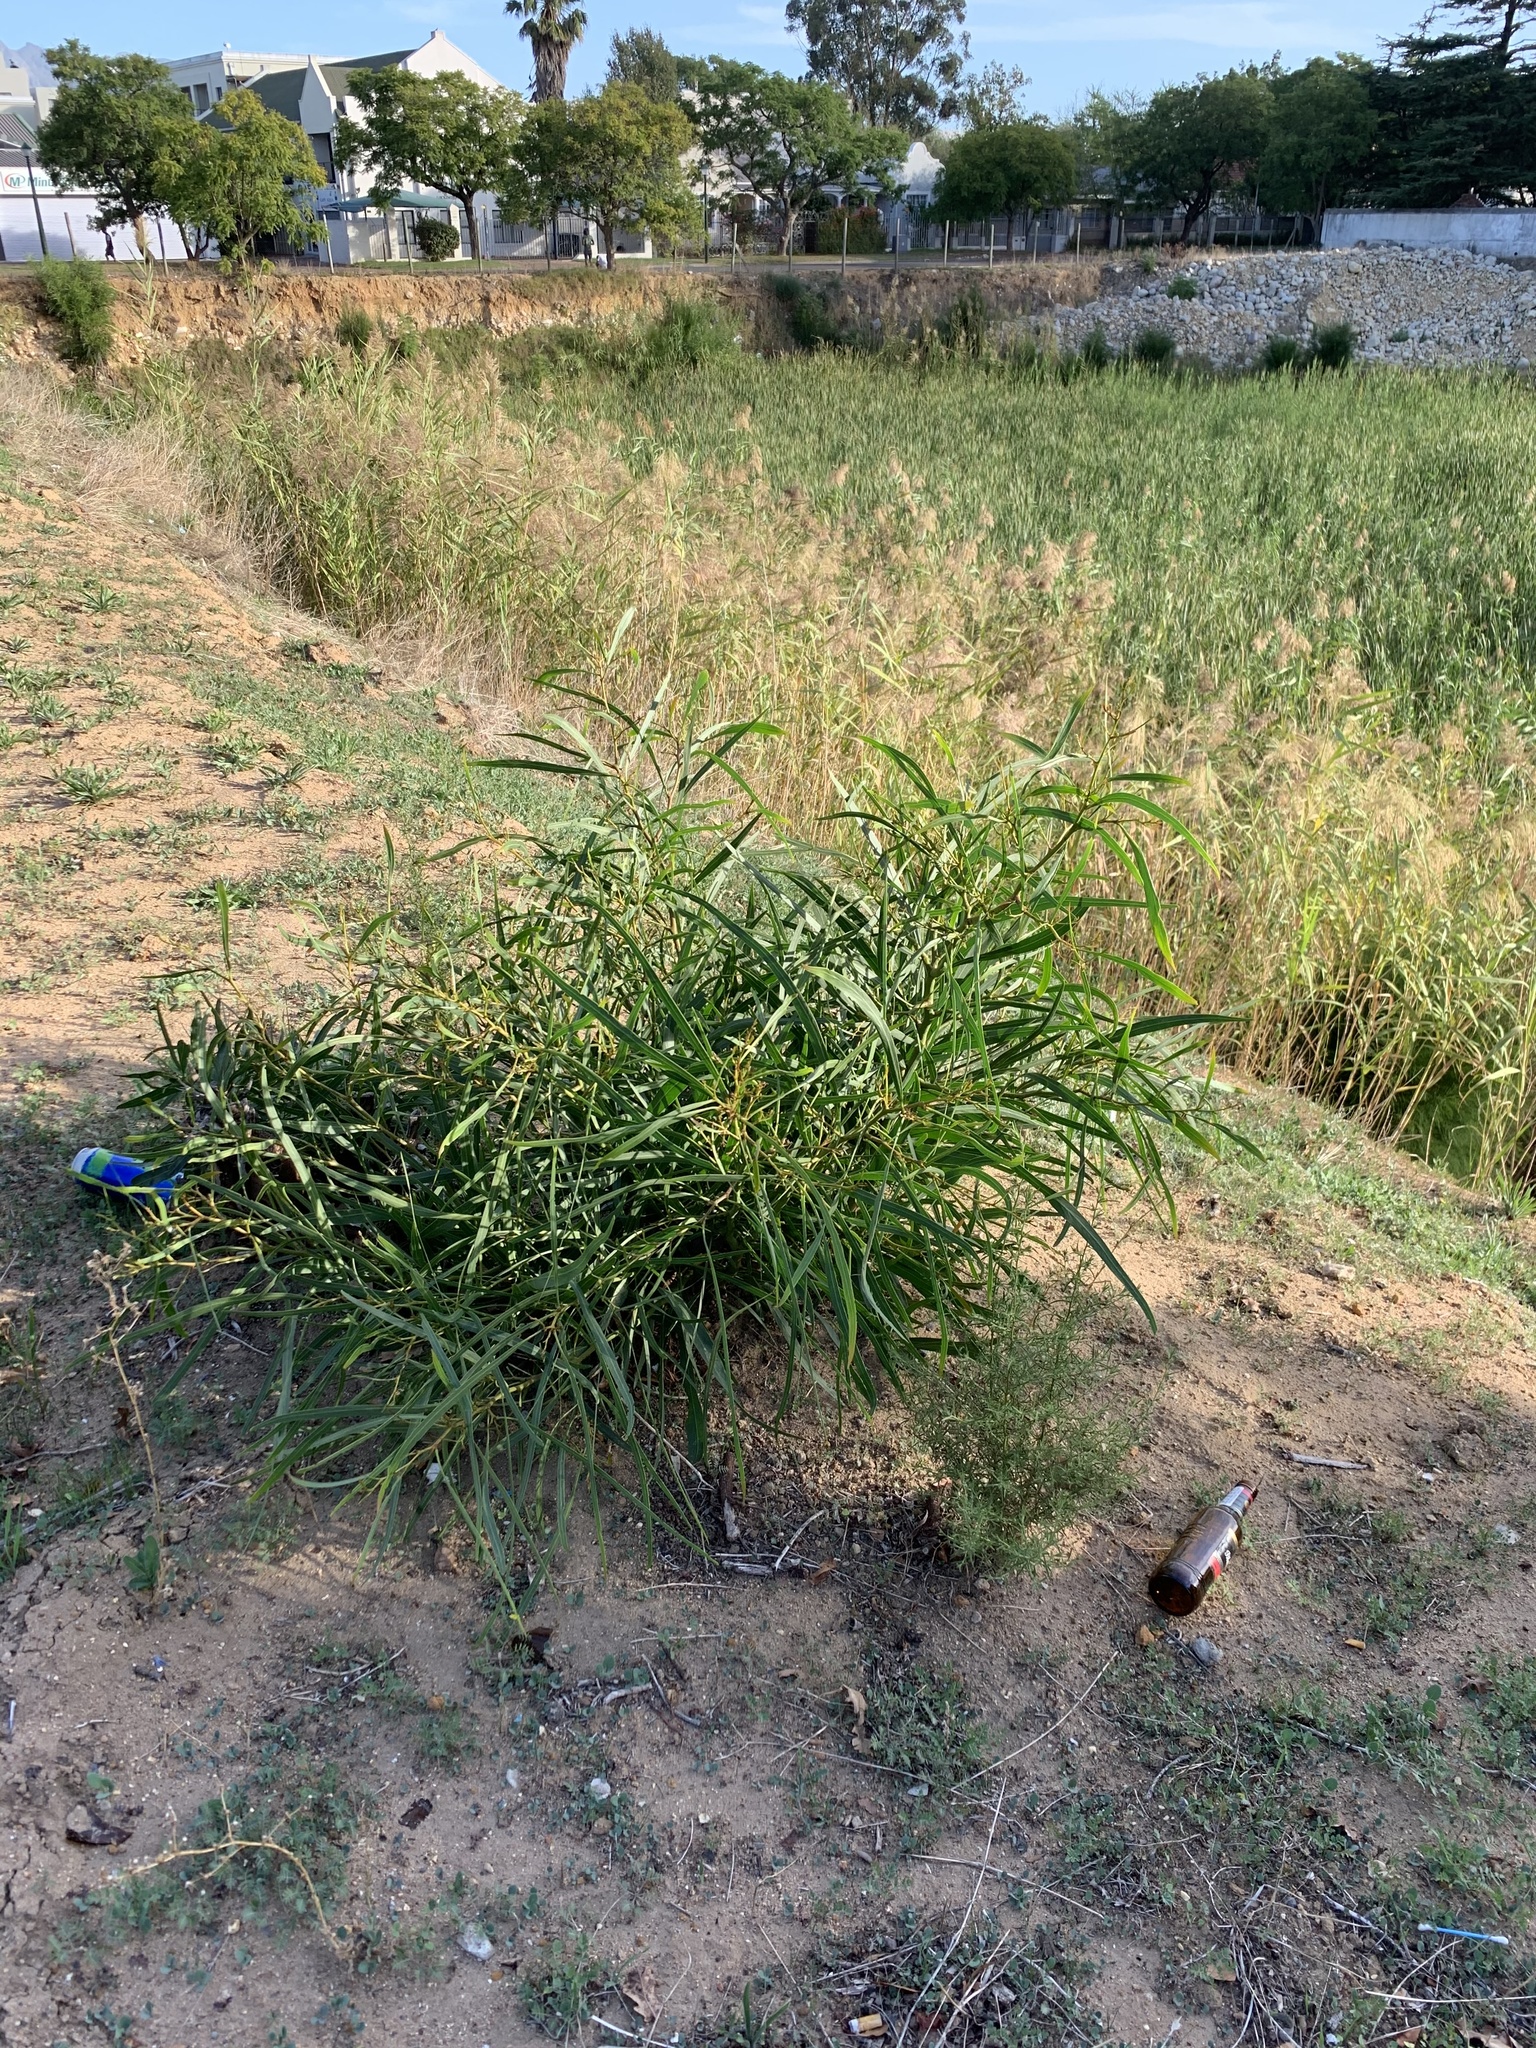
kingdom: Plantae
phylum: Tracheophyta
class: Magnoliopsida
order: Fabales
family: Fabaceae
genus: Acacia
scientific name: Acacia saligna
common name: Orange wattle
